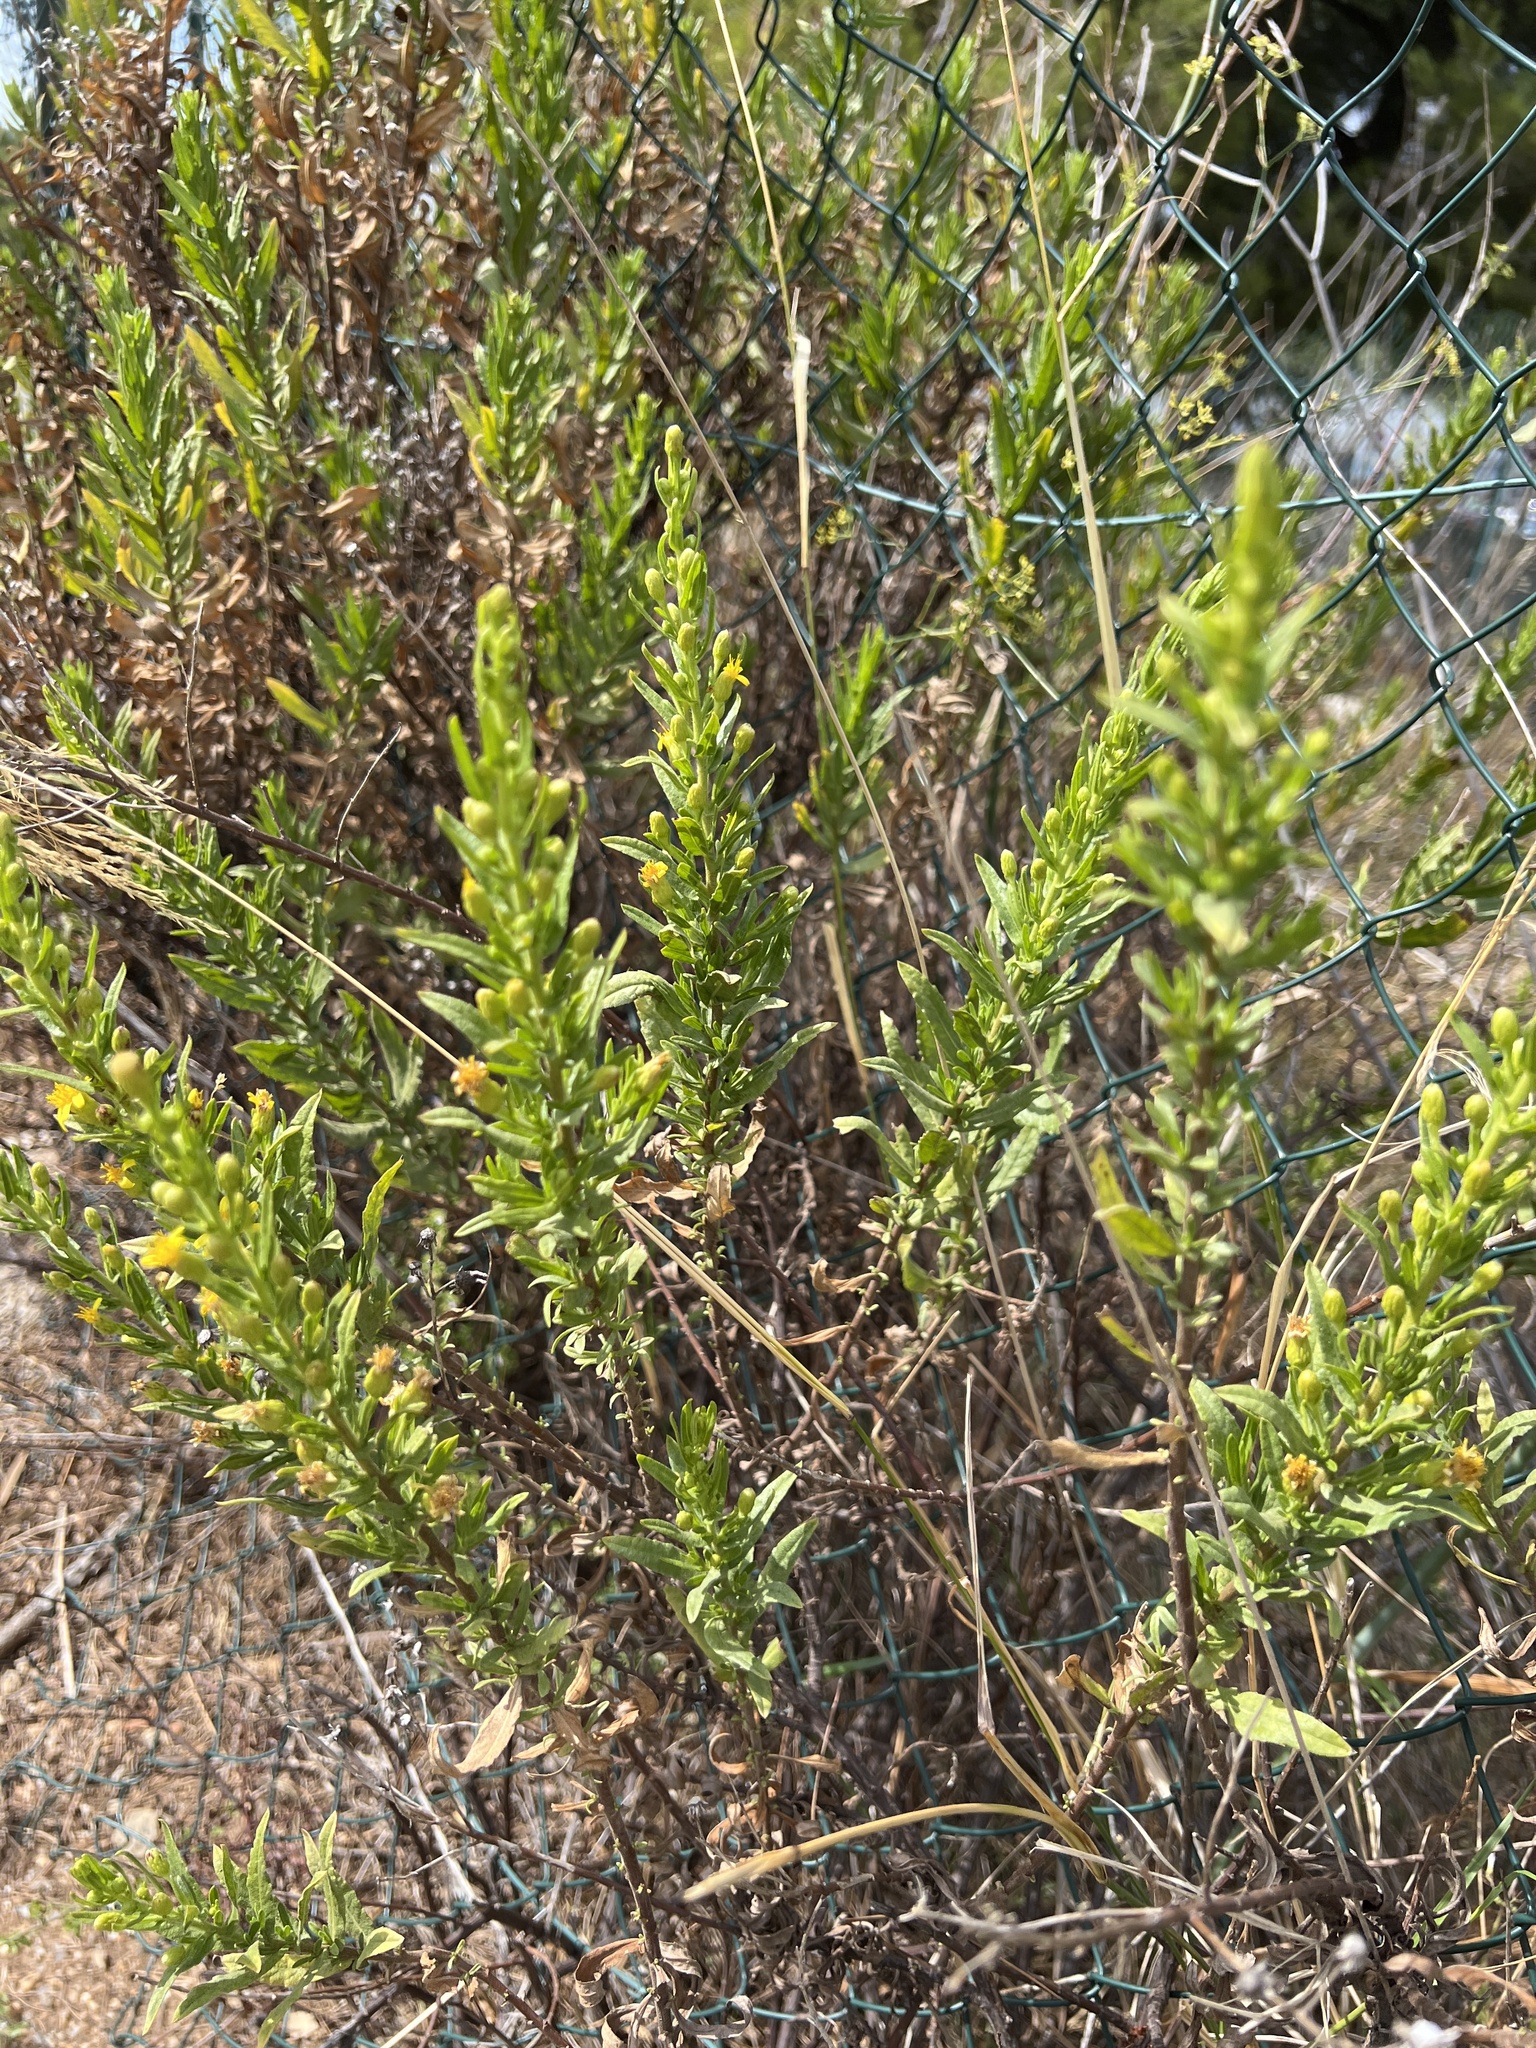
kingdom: Plantae
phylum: Tracheophyta
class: Magnoliopsida
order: Asterales
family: Asteraceae
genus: Dittrichia
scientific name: Dittrichia viscosa
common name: Woody fleabane
